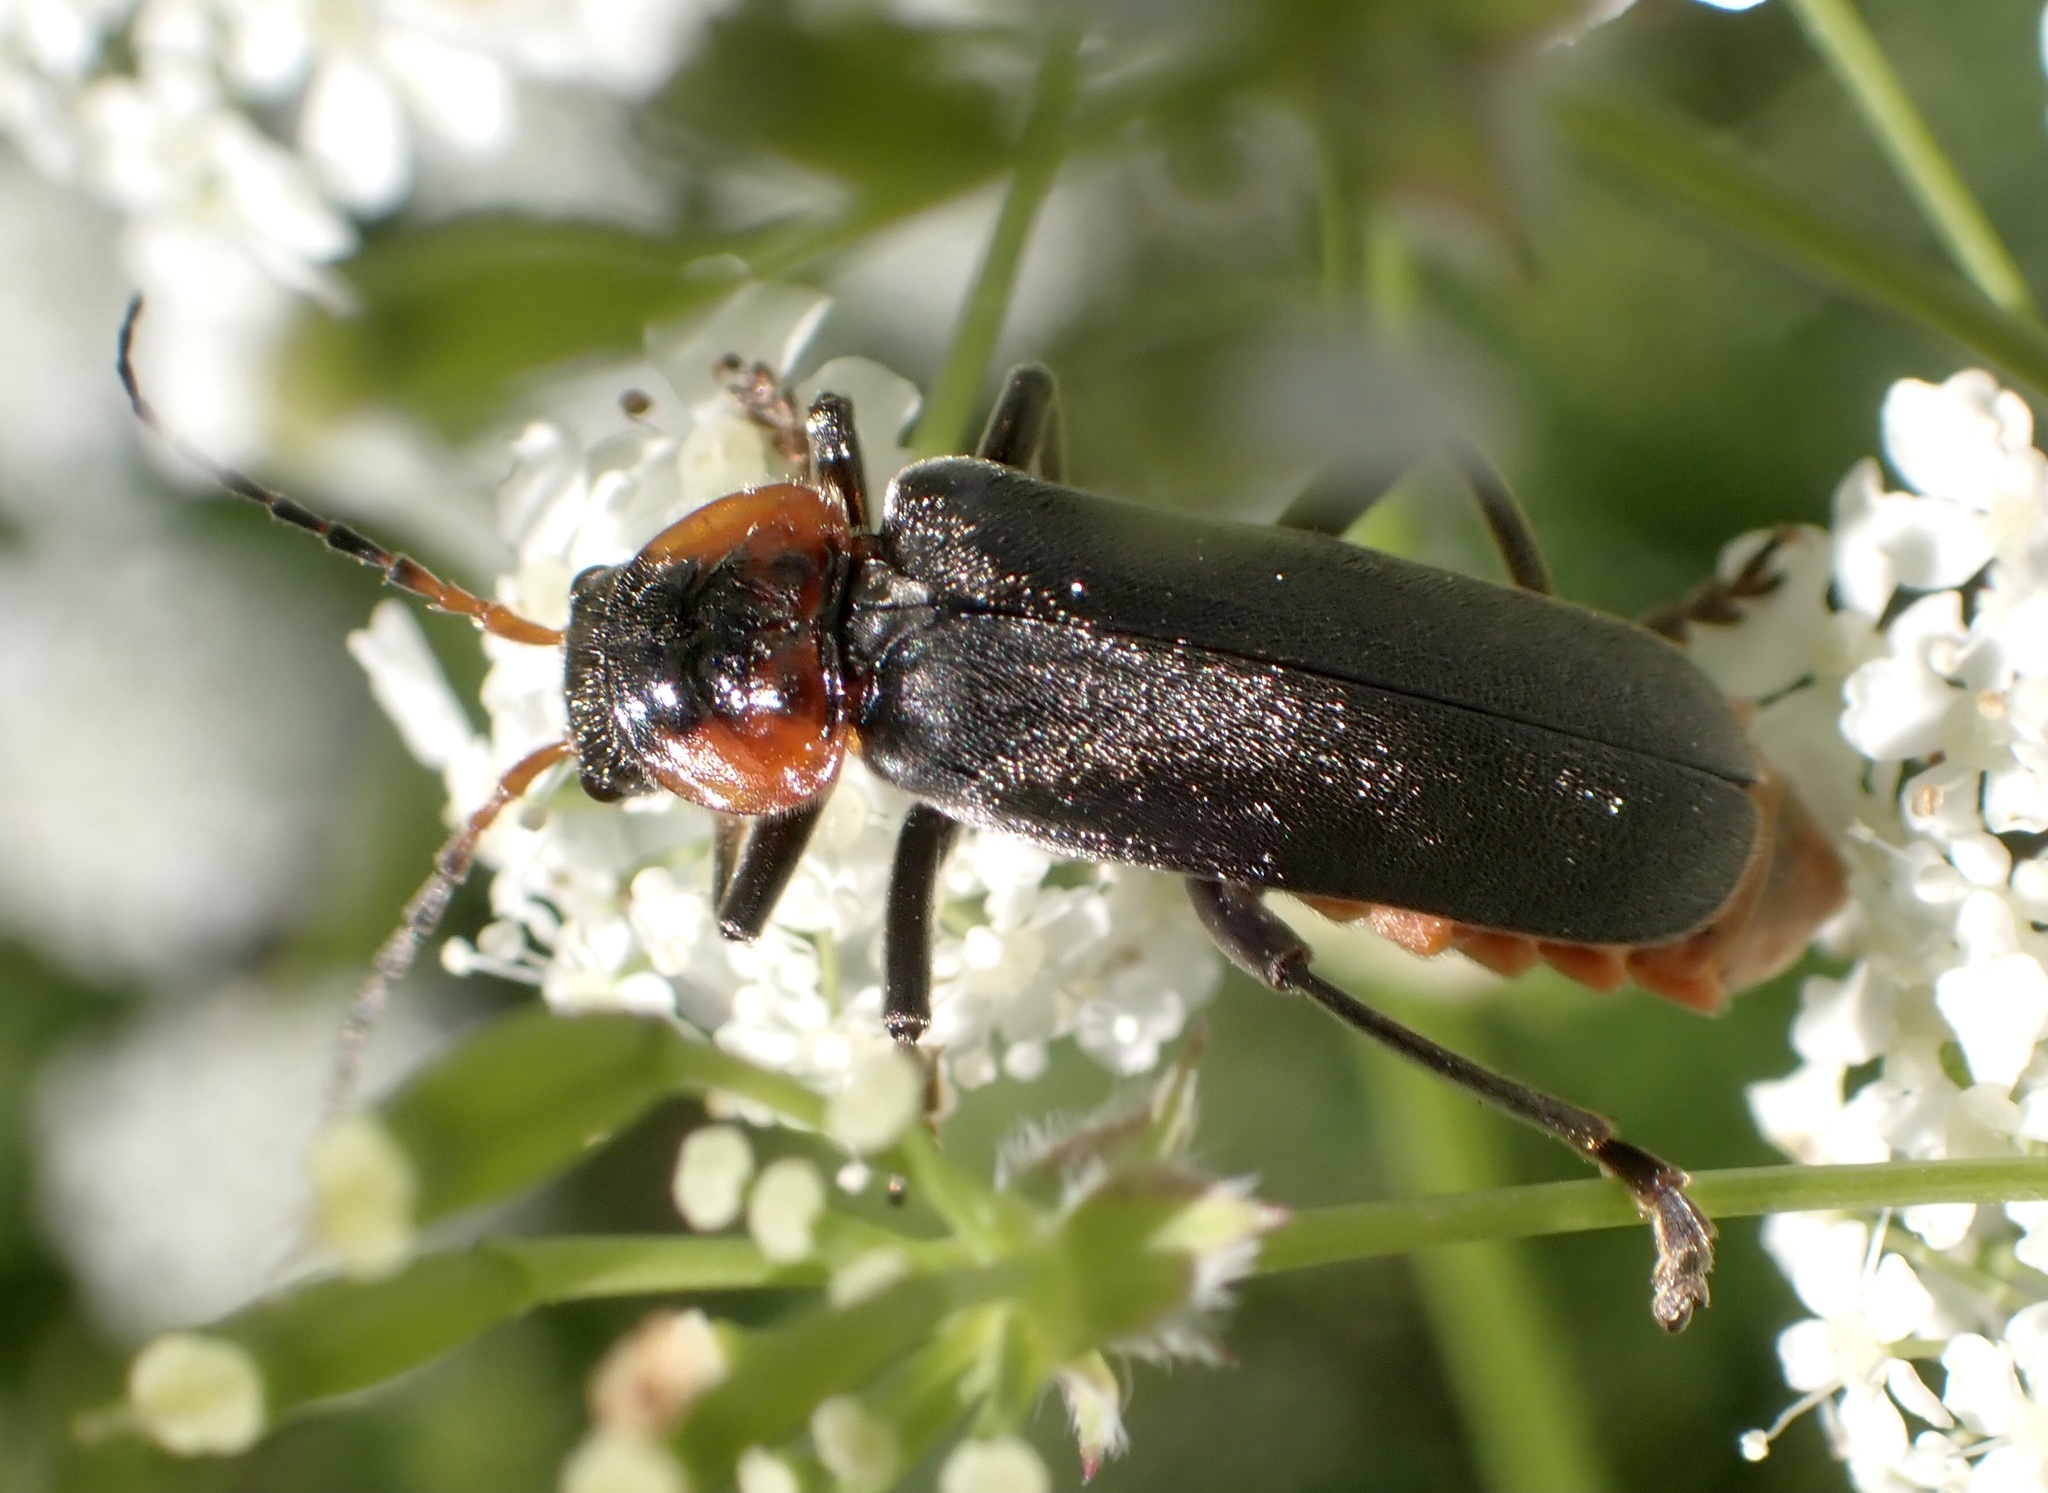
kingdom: Animalia
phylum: Arthropoda
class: Insecta
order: Coleoptera
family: Cantharidae
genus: Cantharis
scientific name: Cantharis fusca
